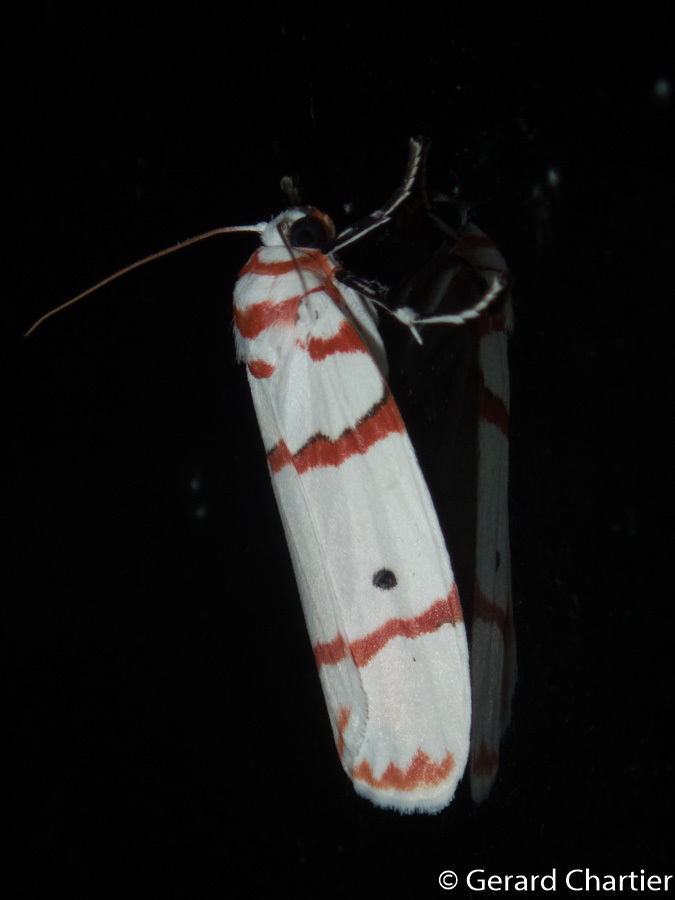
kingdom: Animalia
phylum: Arthropoda
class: Insecta
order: Lepidoptera
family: Erebidae
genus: Cyana
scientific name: Cyana perornata
